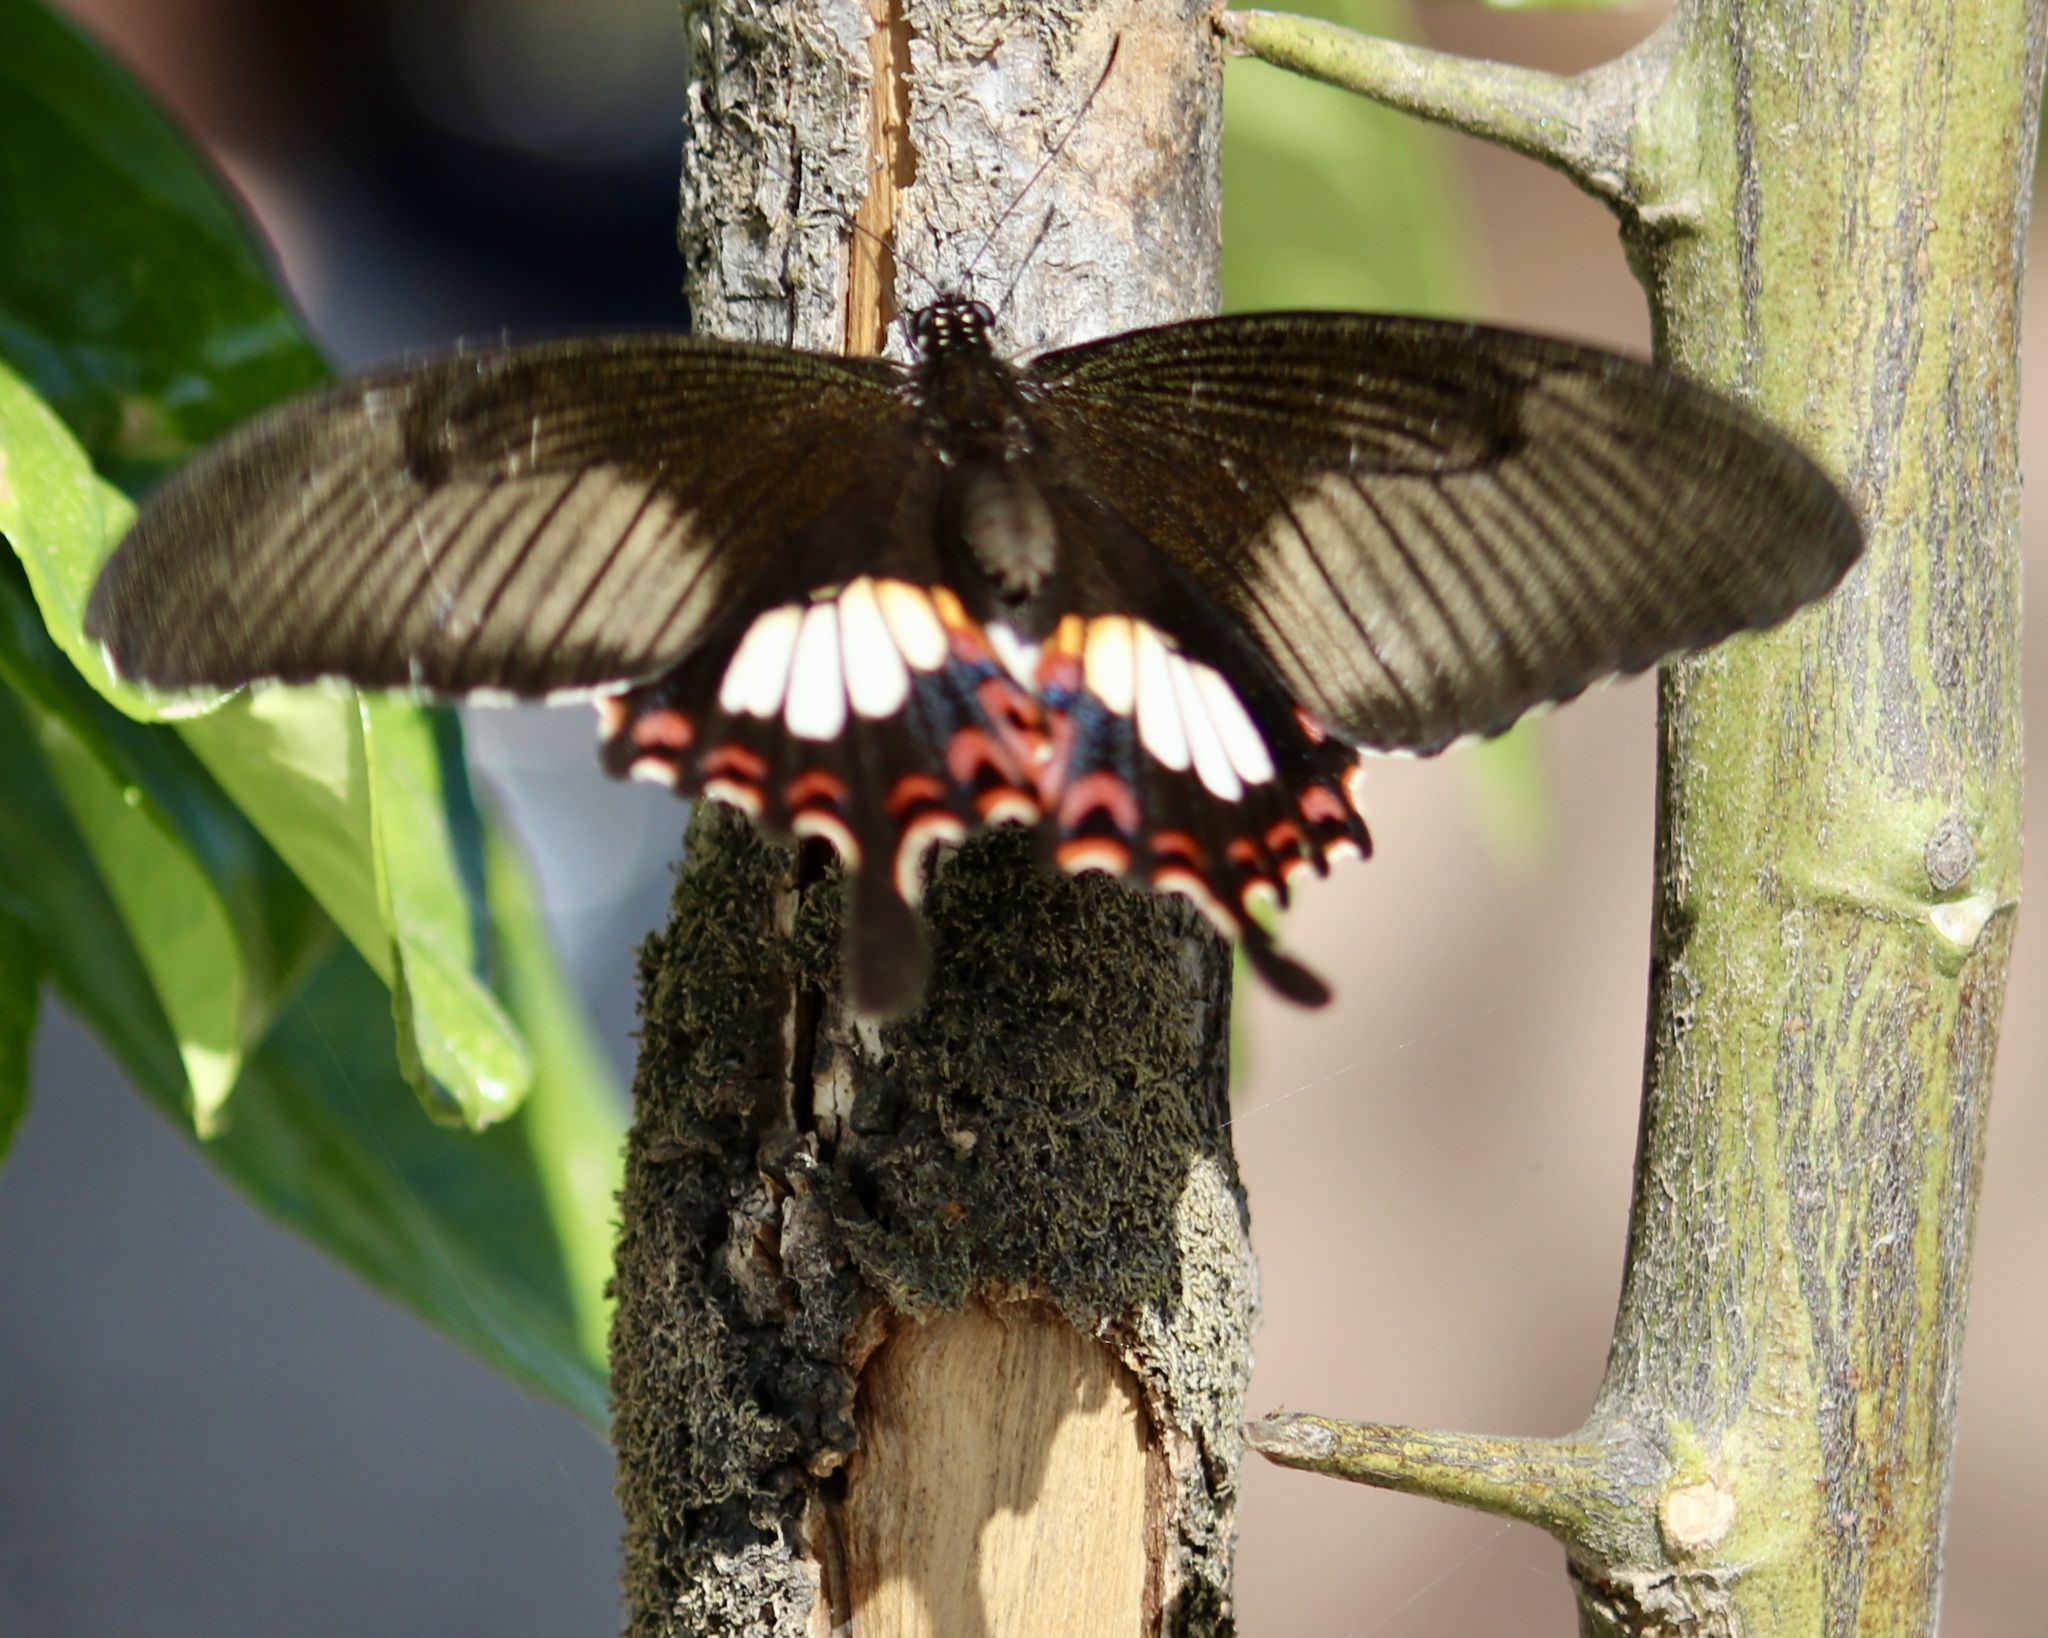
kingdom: Animalia
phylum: Arthropoda
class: Insecta
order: Lepidoptera
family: Papilionidae
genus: Papilio
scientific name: Papilio polytes
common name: Common mormon
